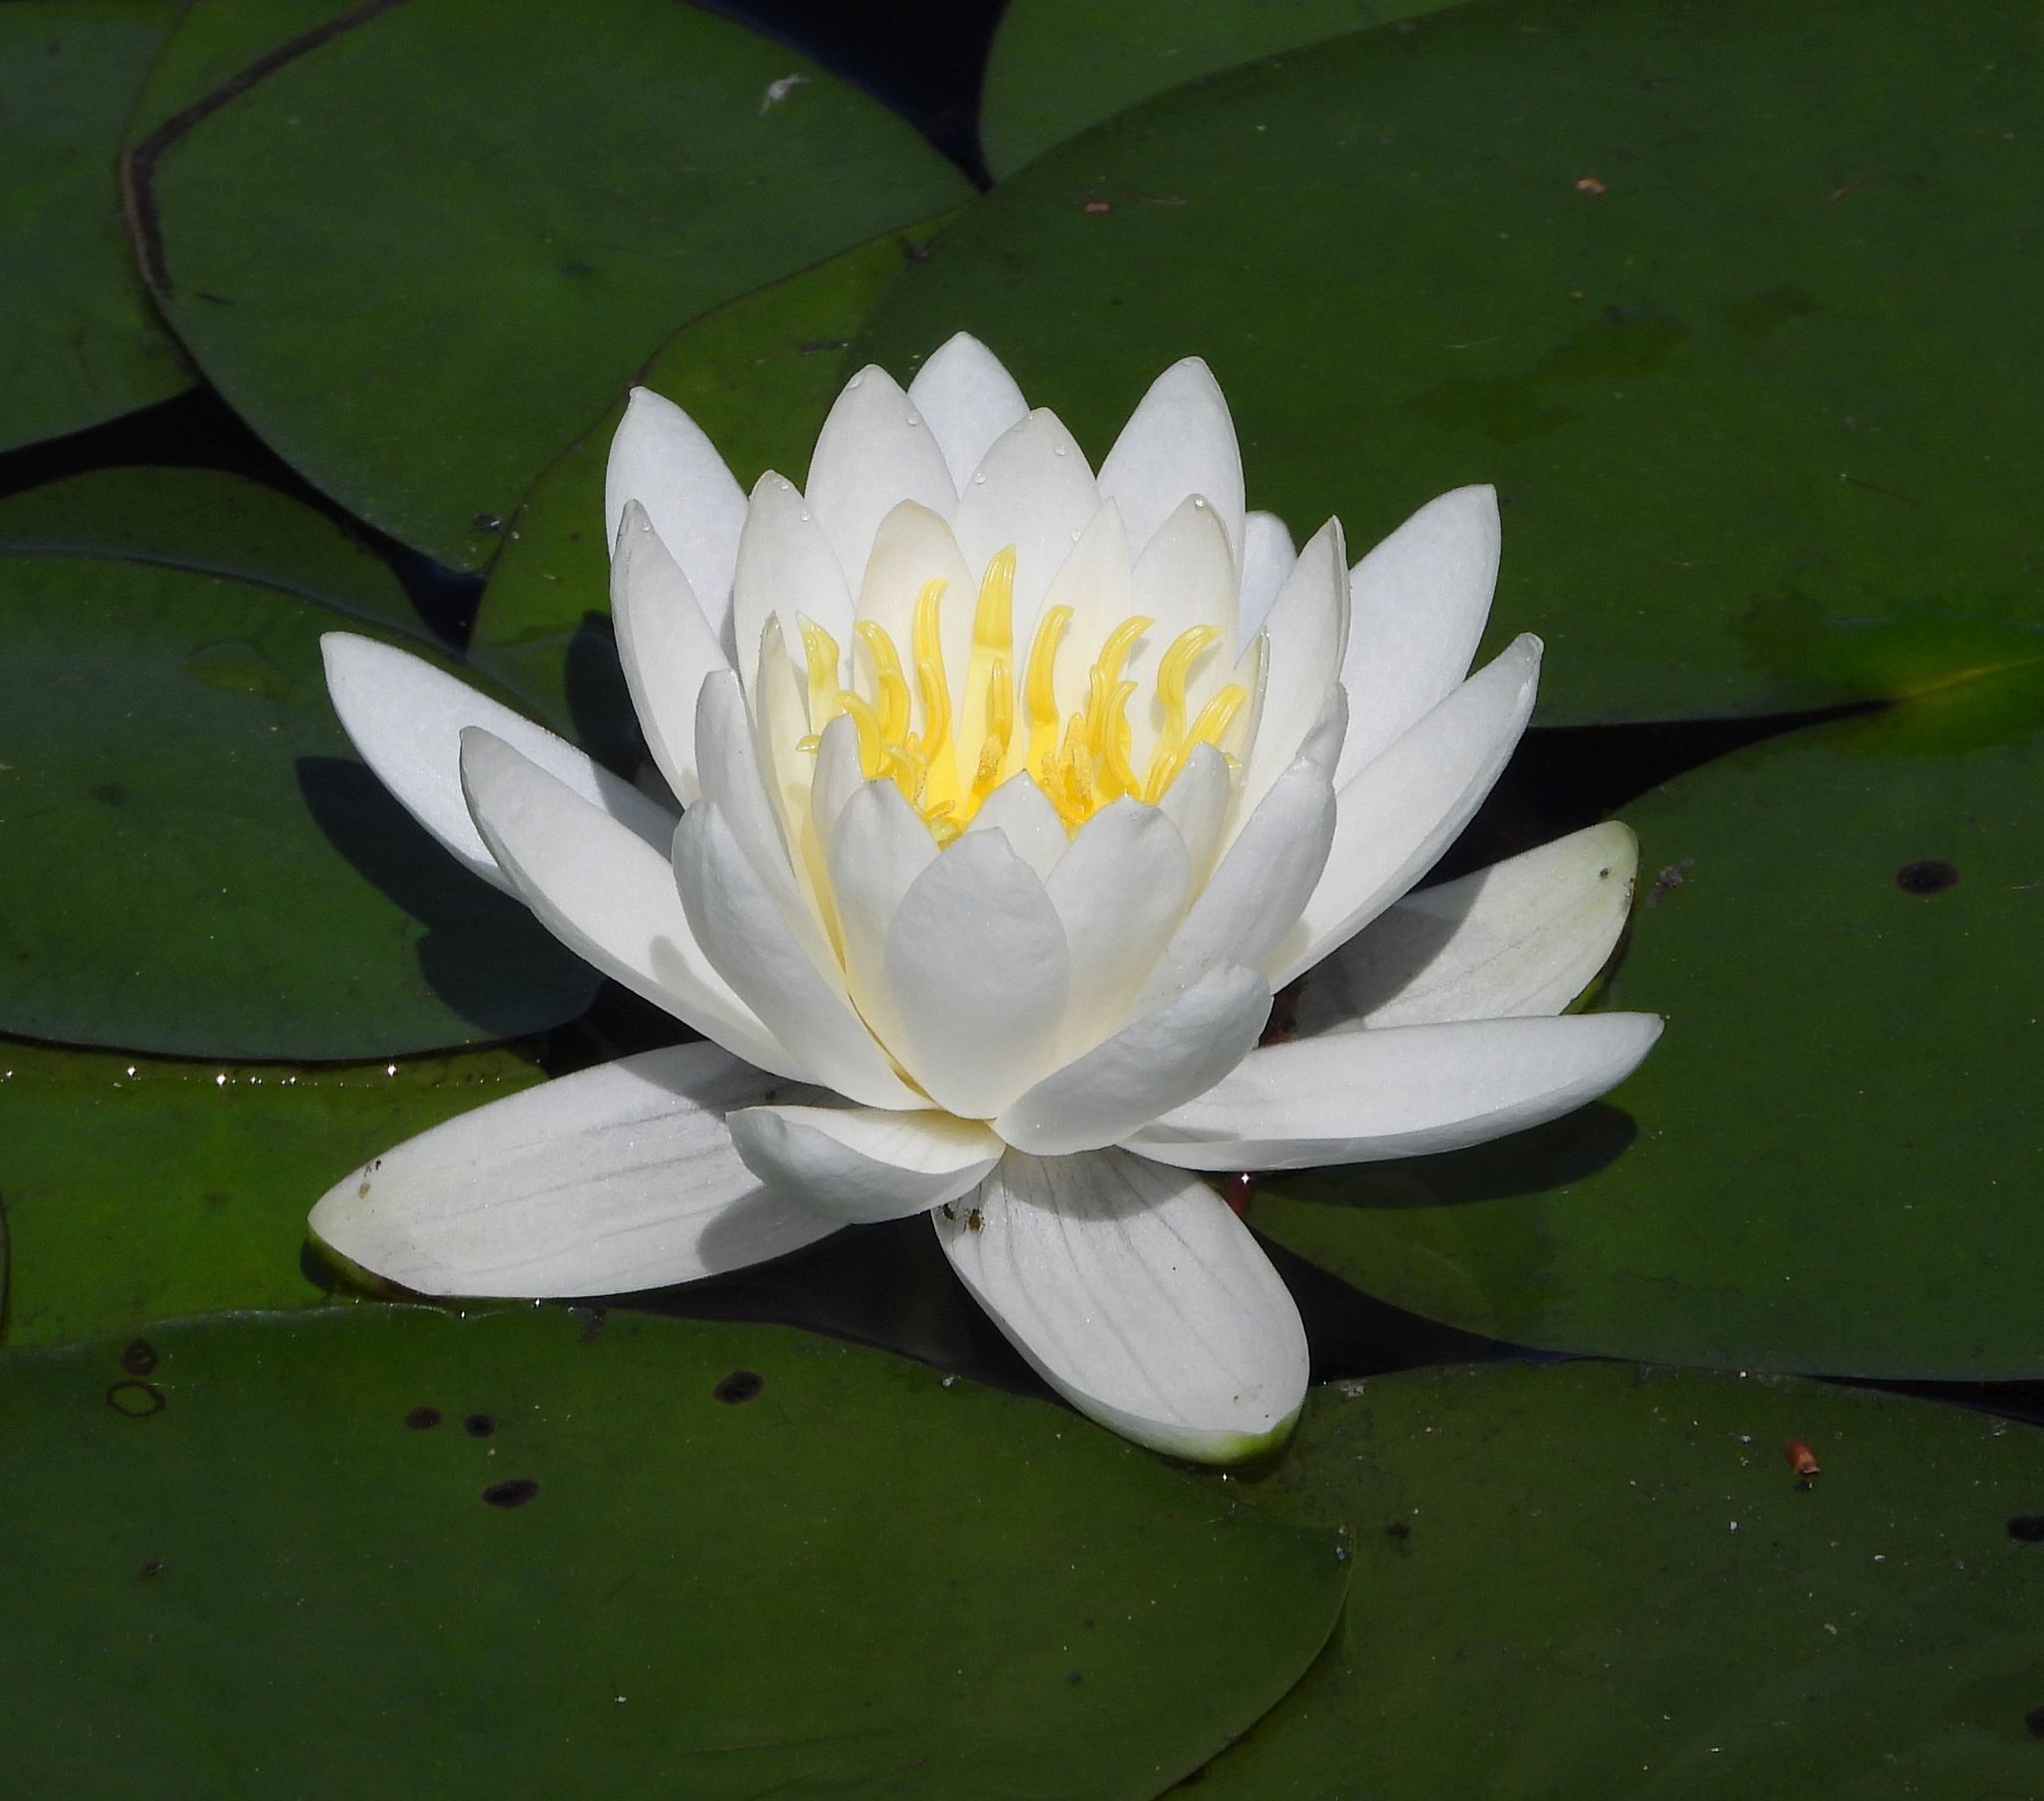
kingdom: Plantae
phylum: Tracheophyta
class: Magnoliopsida
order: Nymphaeales
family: Nymphaeaceae
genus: Nymphaea
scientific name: Nymphaea odorata
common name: Fragrant water-lily
